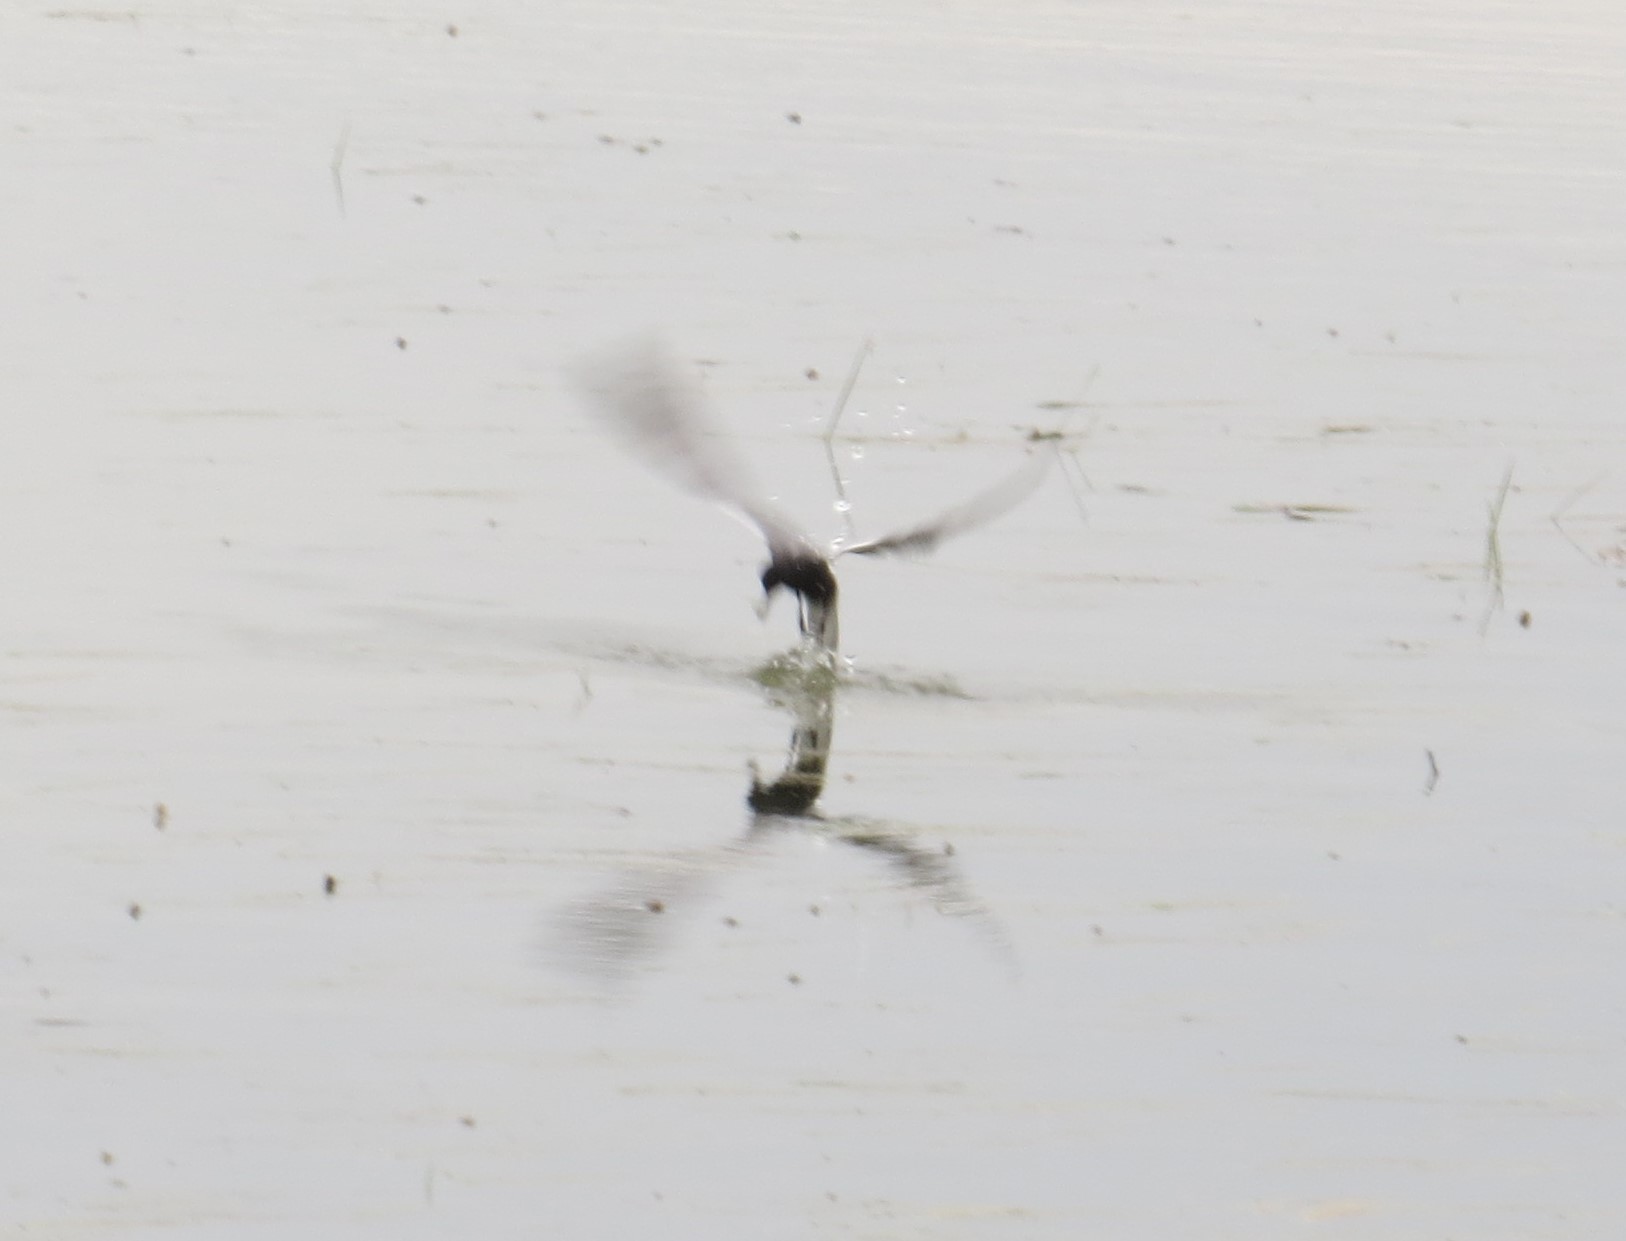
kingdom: Animalia
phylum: Chordata
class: Aves
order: Charadriiformes
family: Laridae
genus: Chlidonias
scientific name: Chlidonias niger
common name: Black tern
